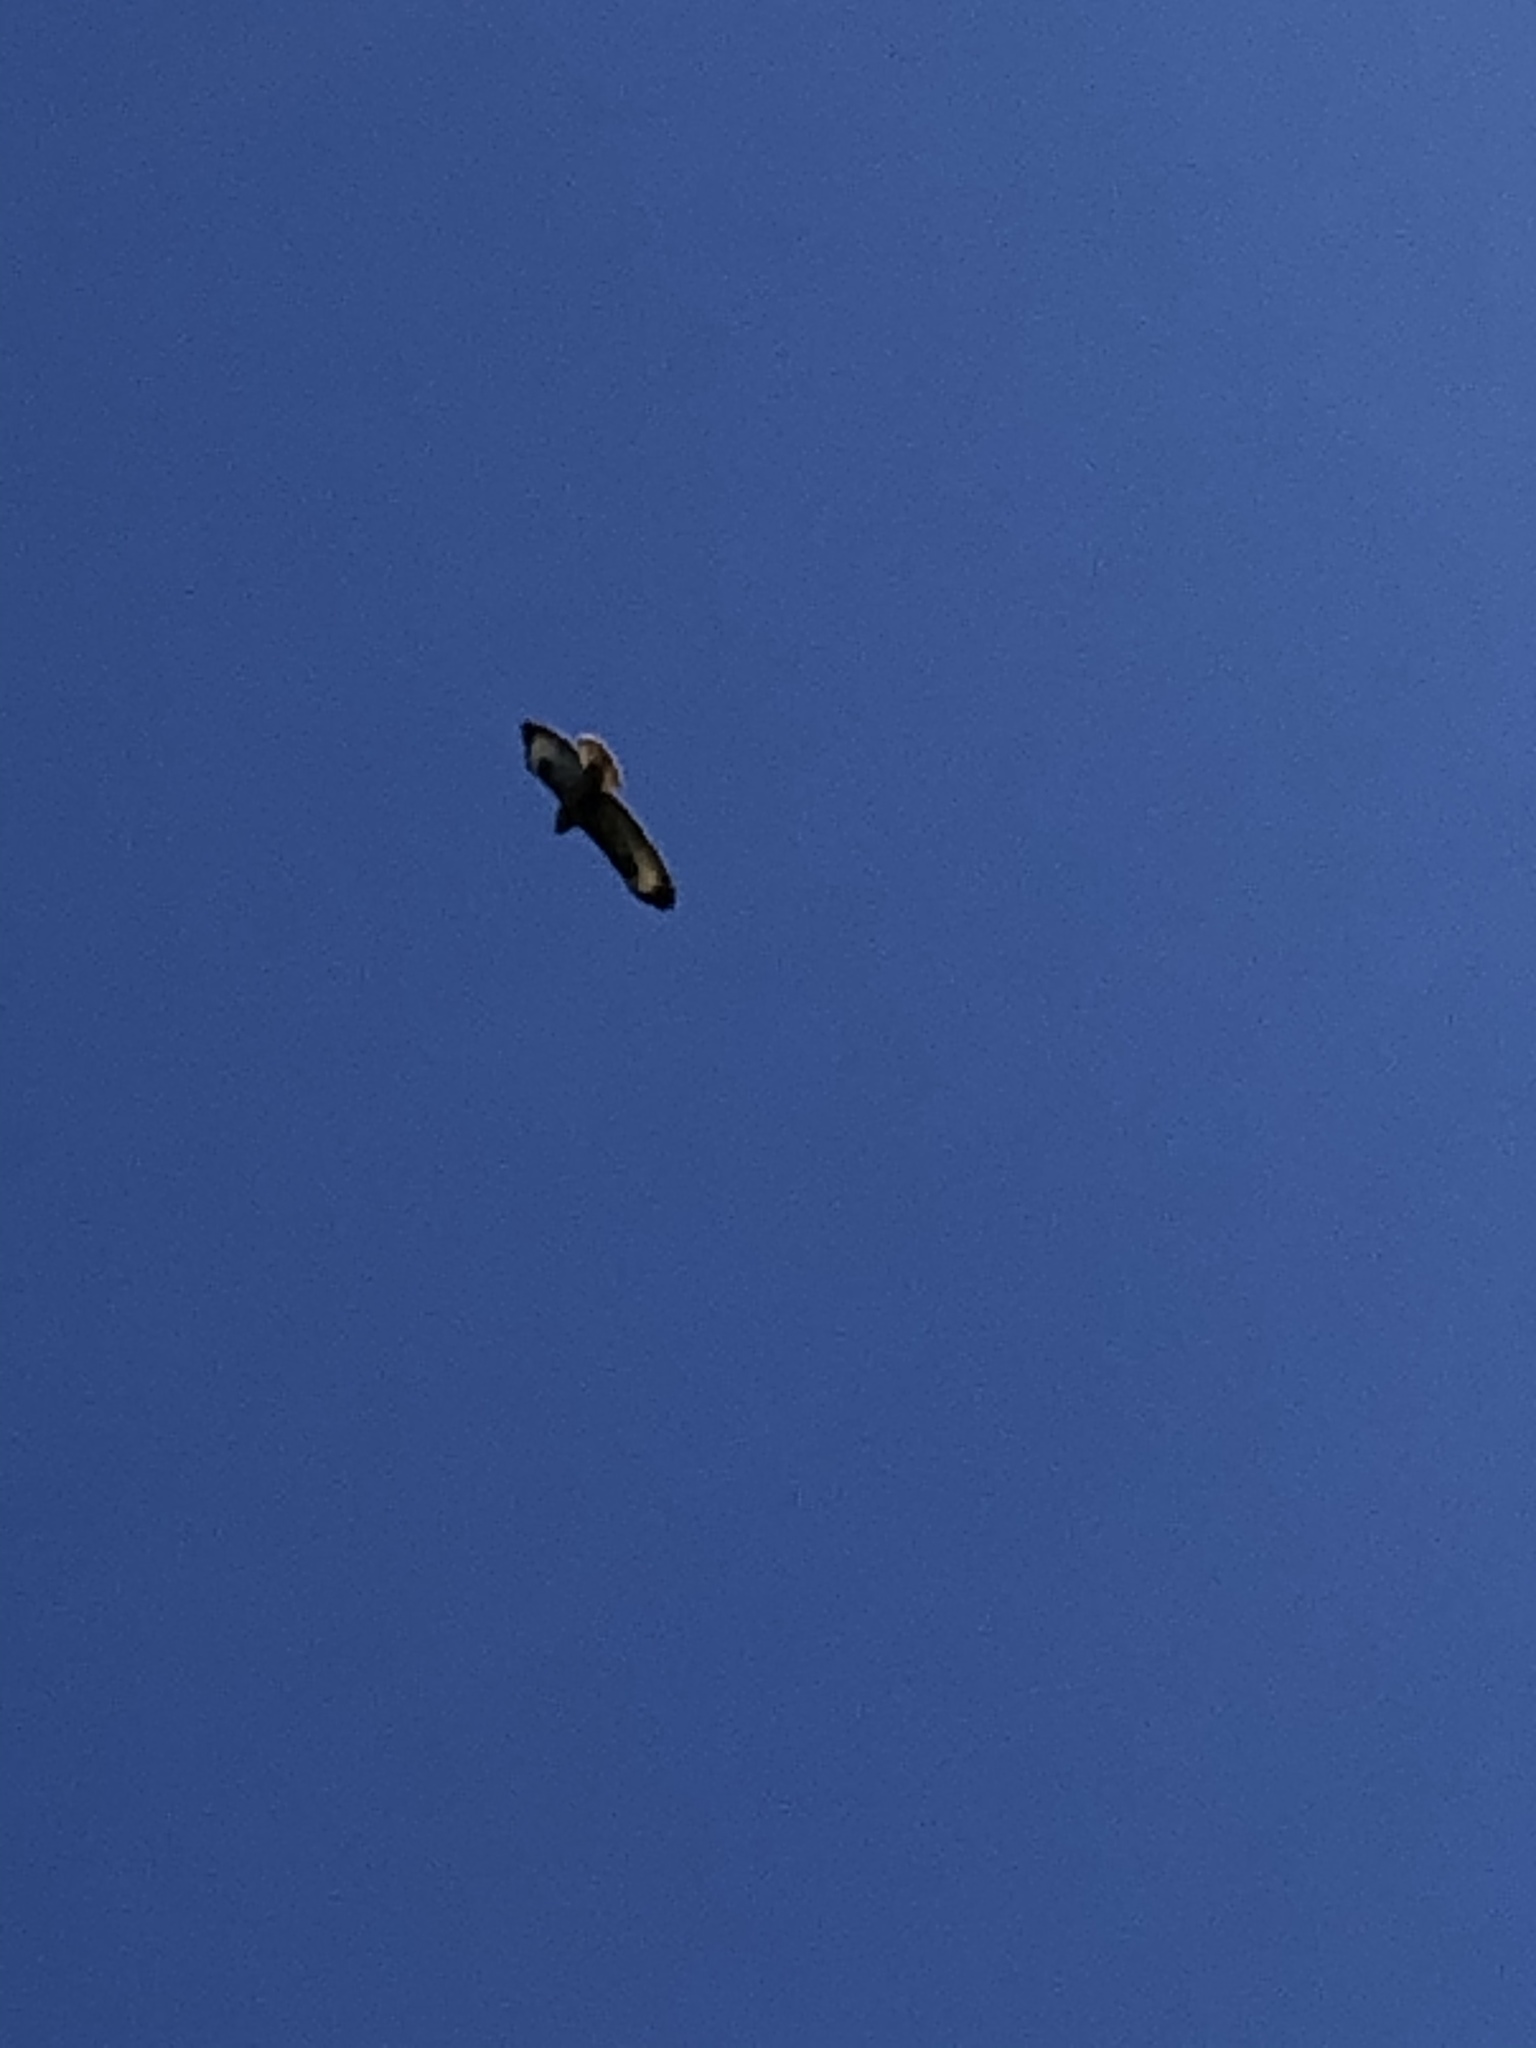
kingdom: Animalia
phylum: Chordata
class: Aves
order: Accipitriformes
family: Accipitridae
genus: Buteo
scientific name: Buteo buteo
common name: Common buzzard
